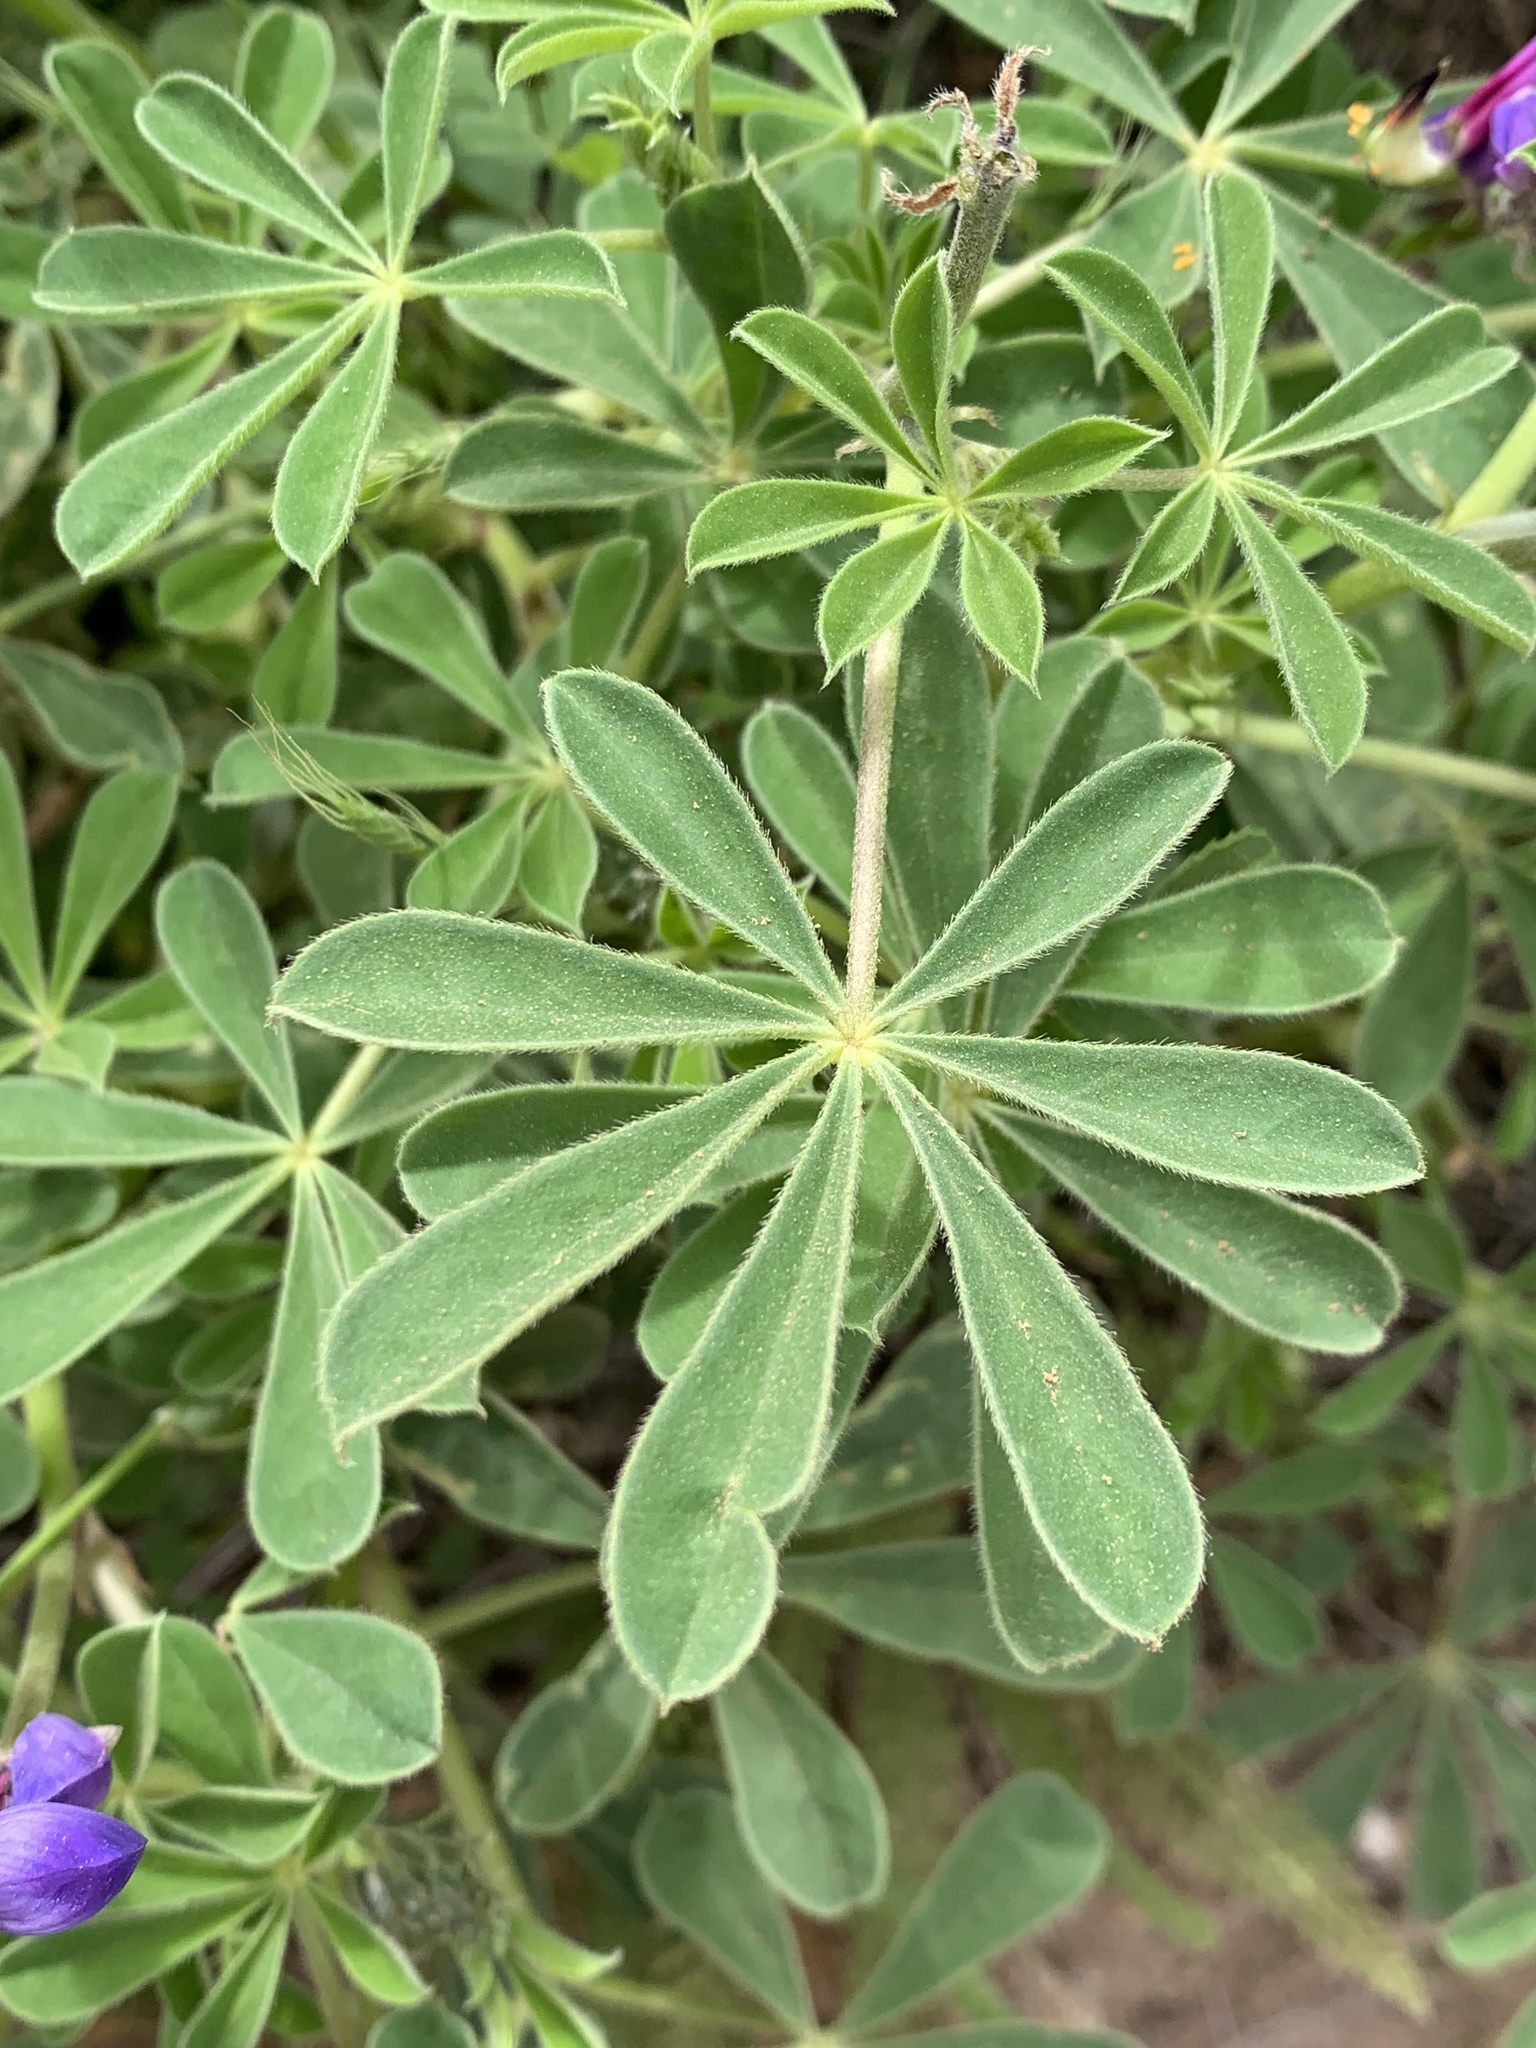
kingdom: Plantae
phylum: Tracheophyta
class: Magnoliopsida
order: Fabales
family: Fabaceae
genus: Lupinus
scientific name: Lupinus succulentus
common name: Arroyo lupine
